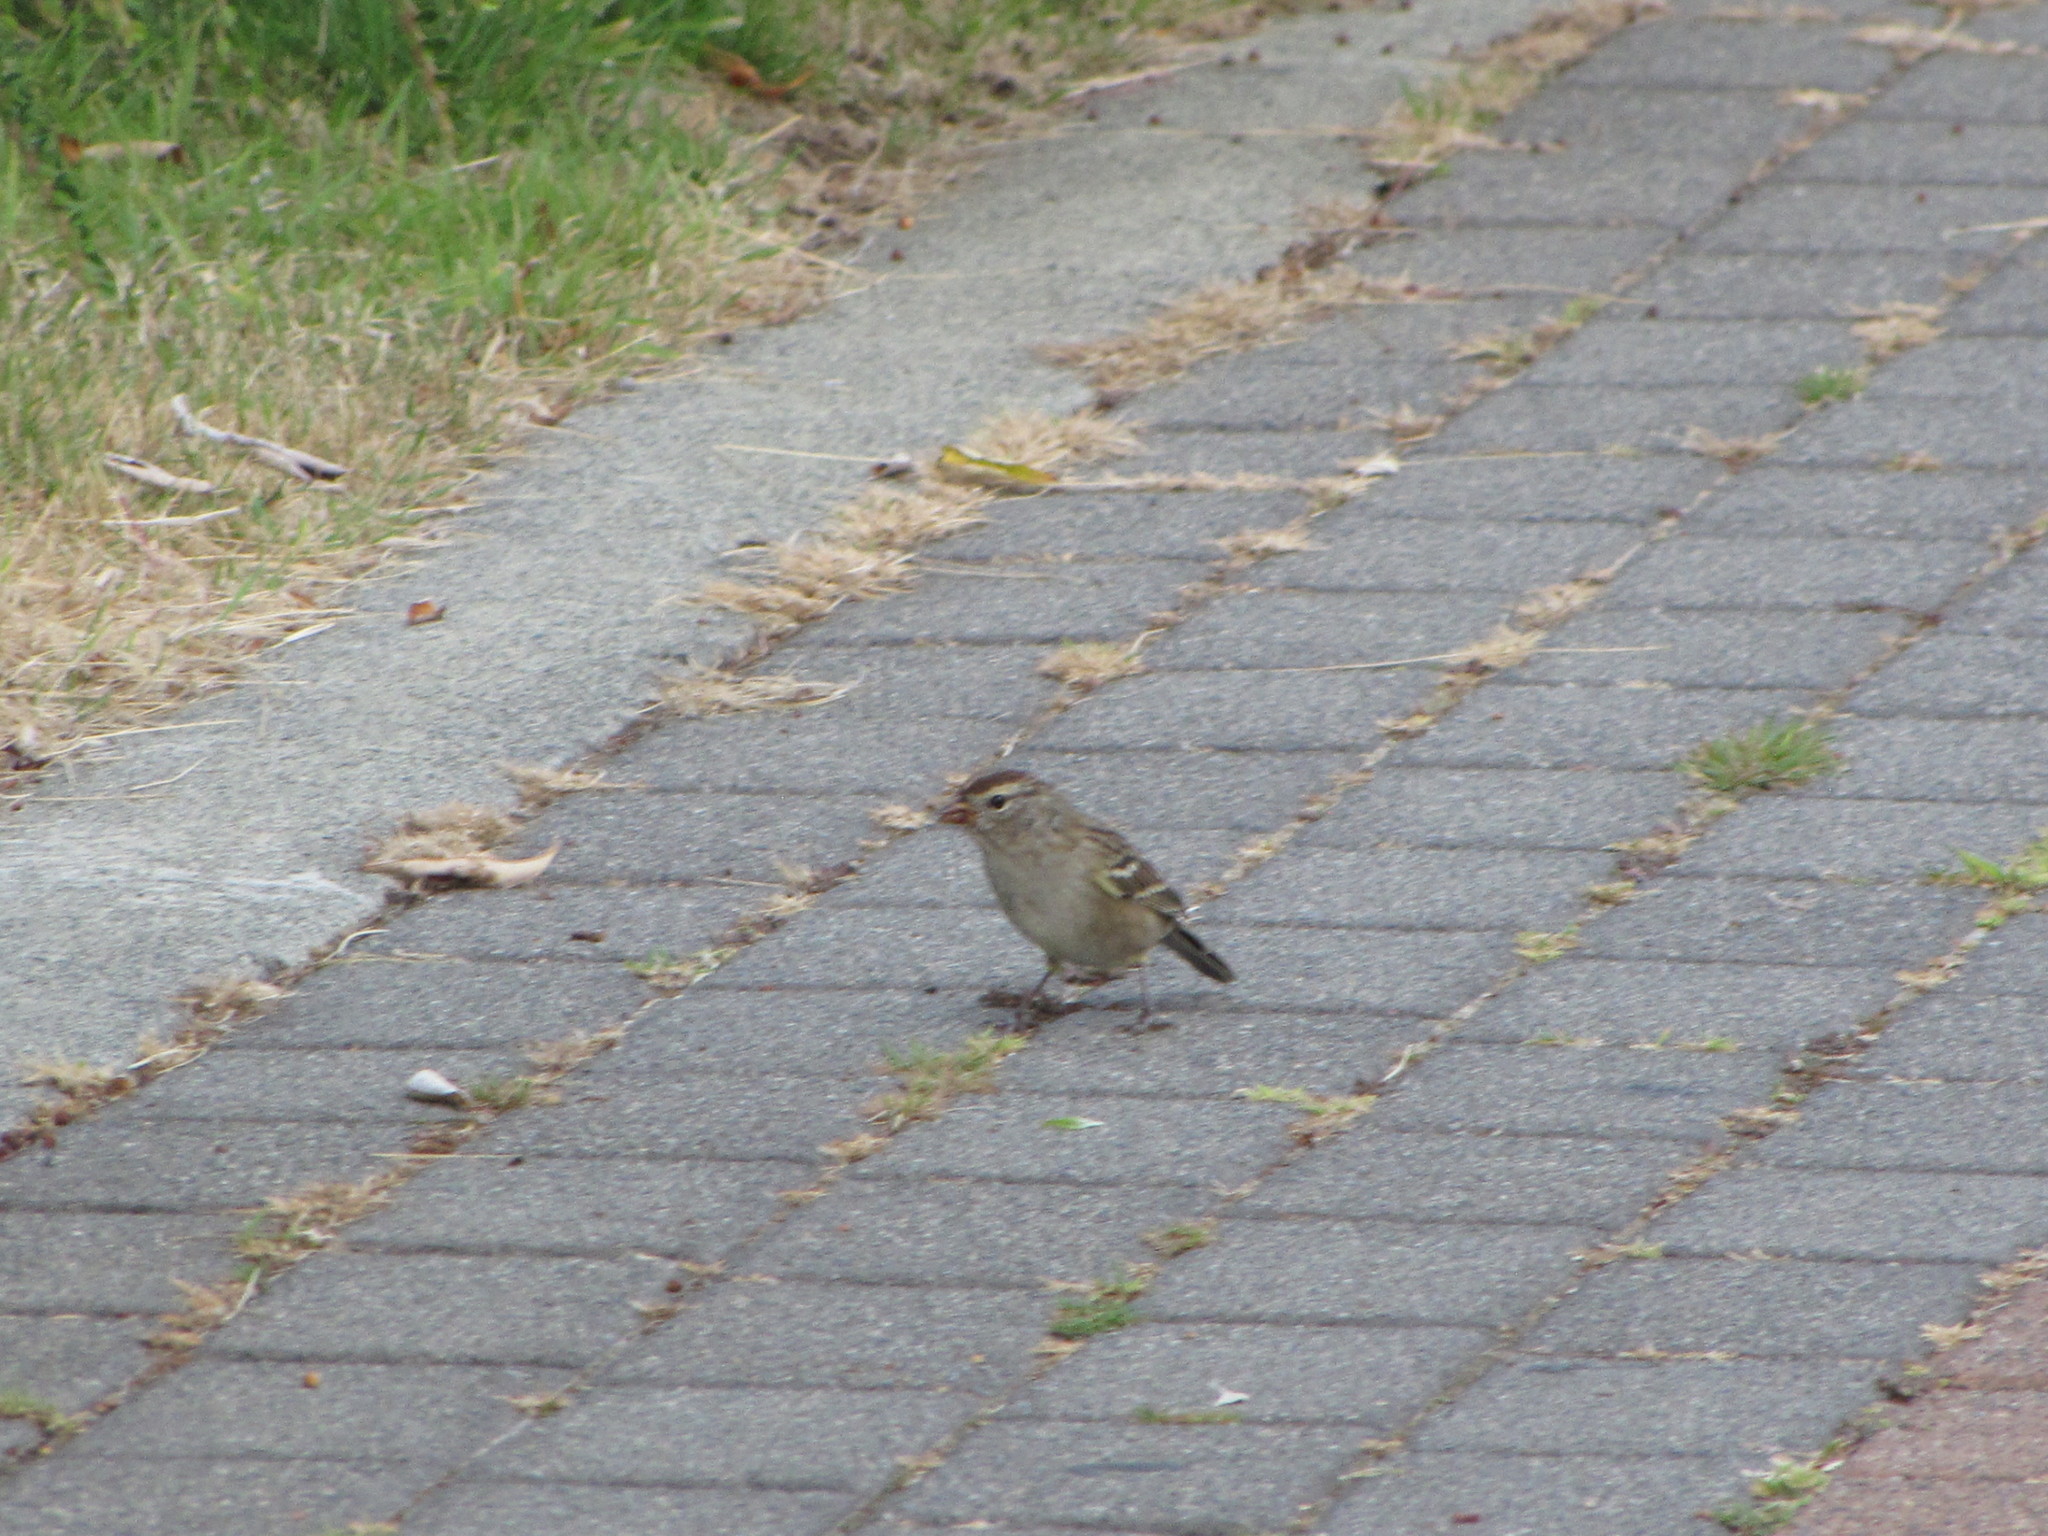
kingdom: Animalia
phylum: Chordata
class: Aves
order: Passeriformes
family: Passerellidae
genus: Zonotrichia
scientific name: Zonotrichia leucophrys
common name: White-crowned sparrow
